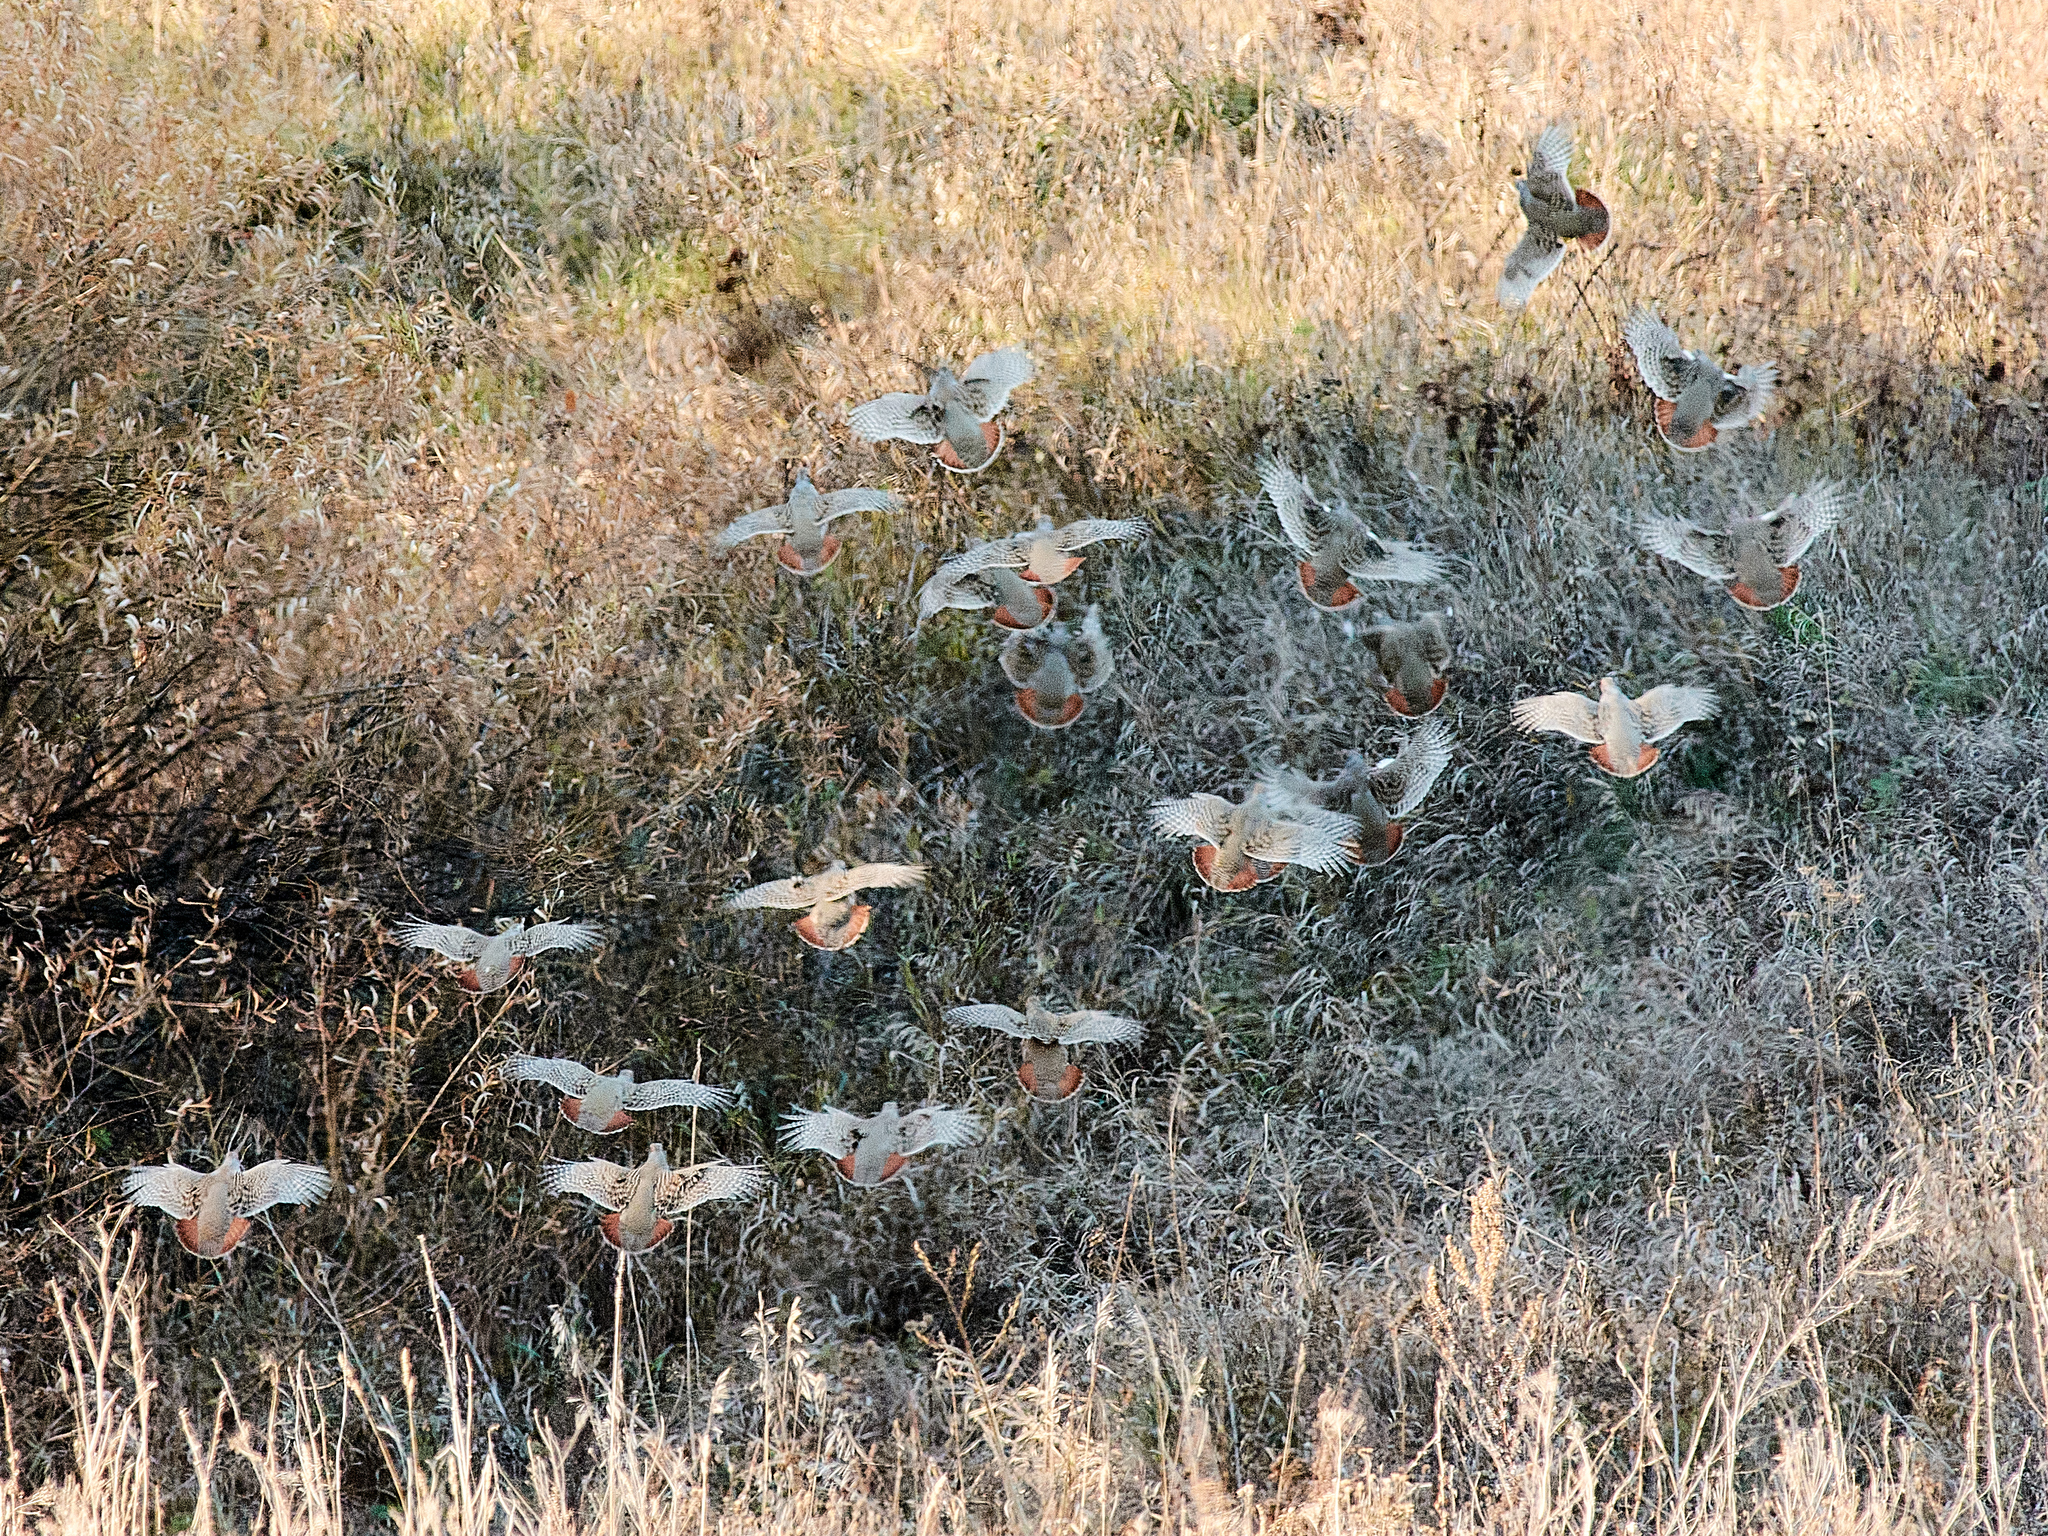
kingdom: Animalia
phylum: Chordata
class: Aves
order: Galliformes
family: Phasianidae
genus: Perdix
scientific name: Perdix perdix
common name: Grey partridge
